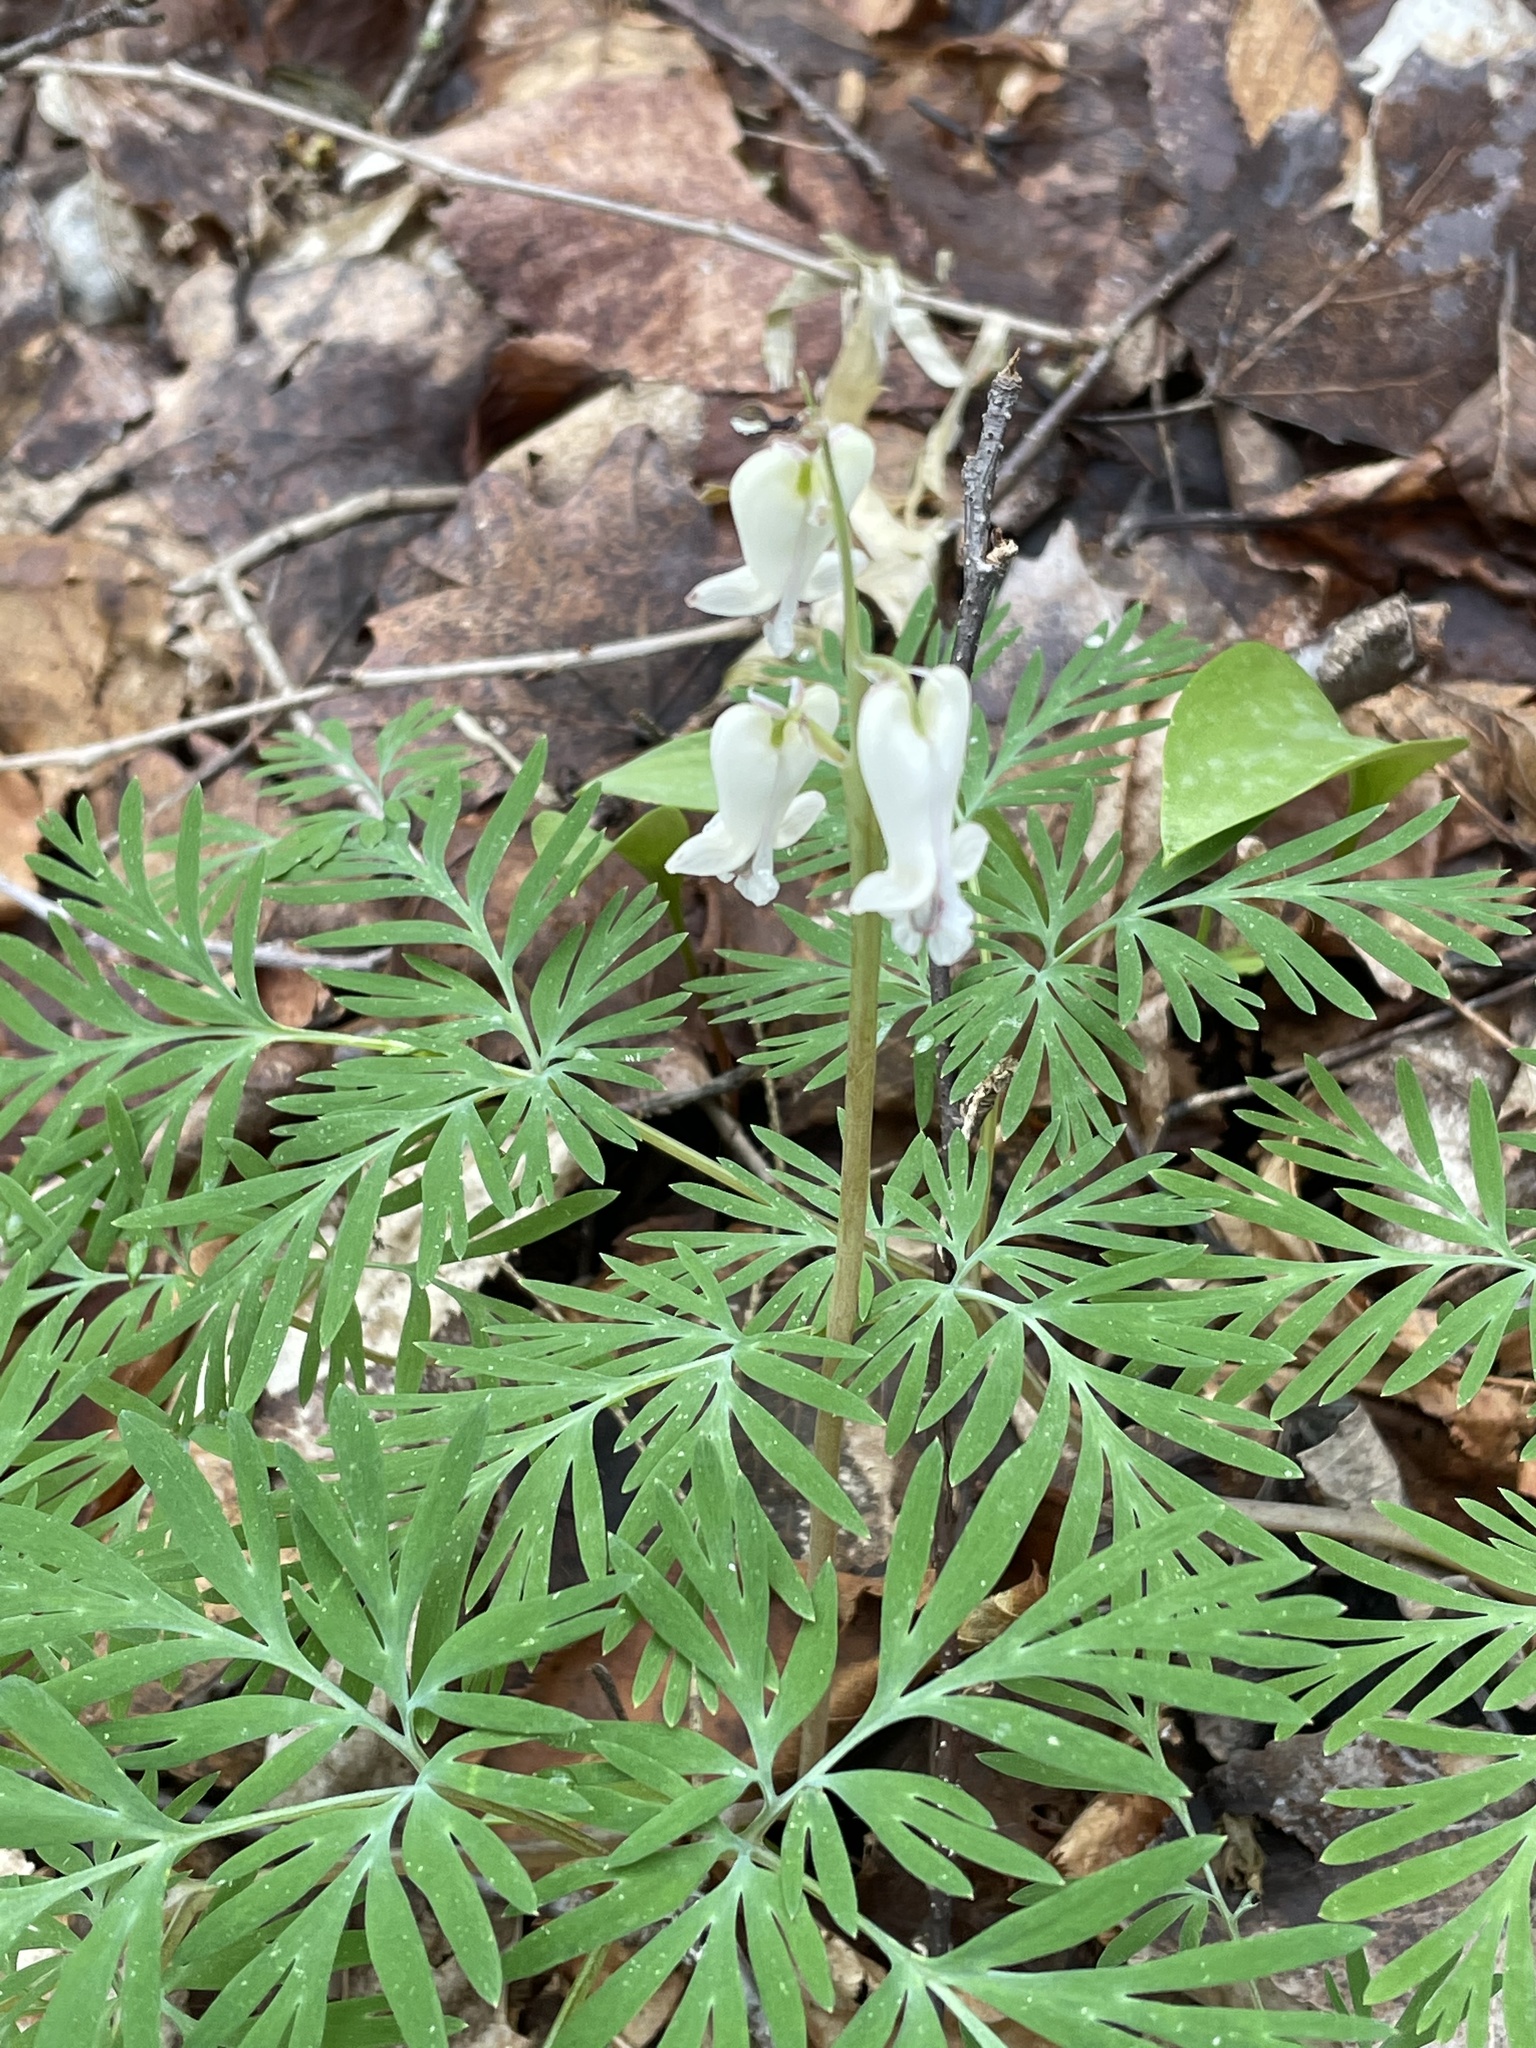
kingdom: Plantae
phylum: Tracheophyta
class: Magnoliopsida
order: Ranunculales
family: Papaveraceae
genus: Dicentra
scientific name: Dicentra canadensis
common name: Squirrel-corn
